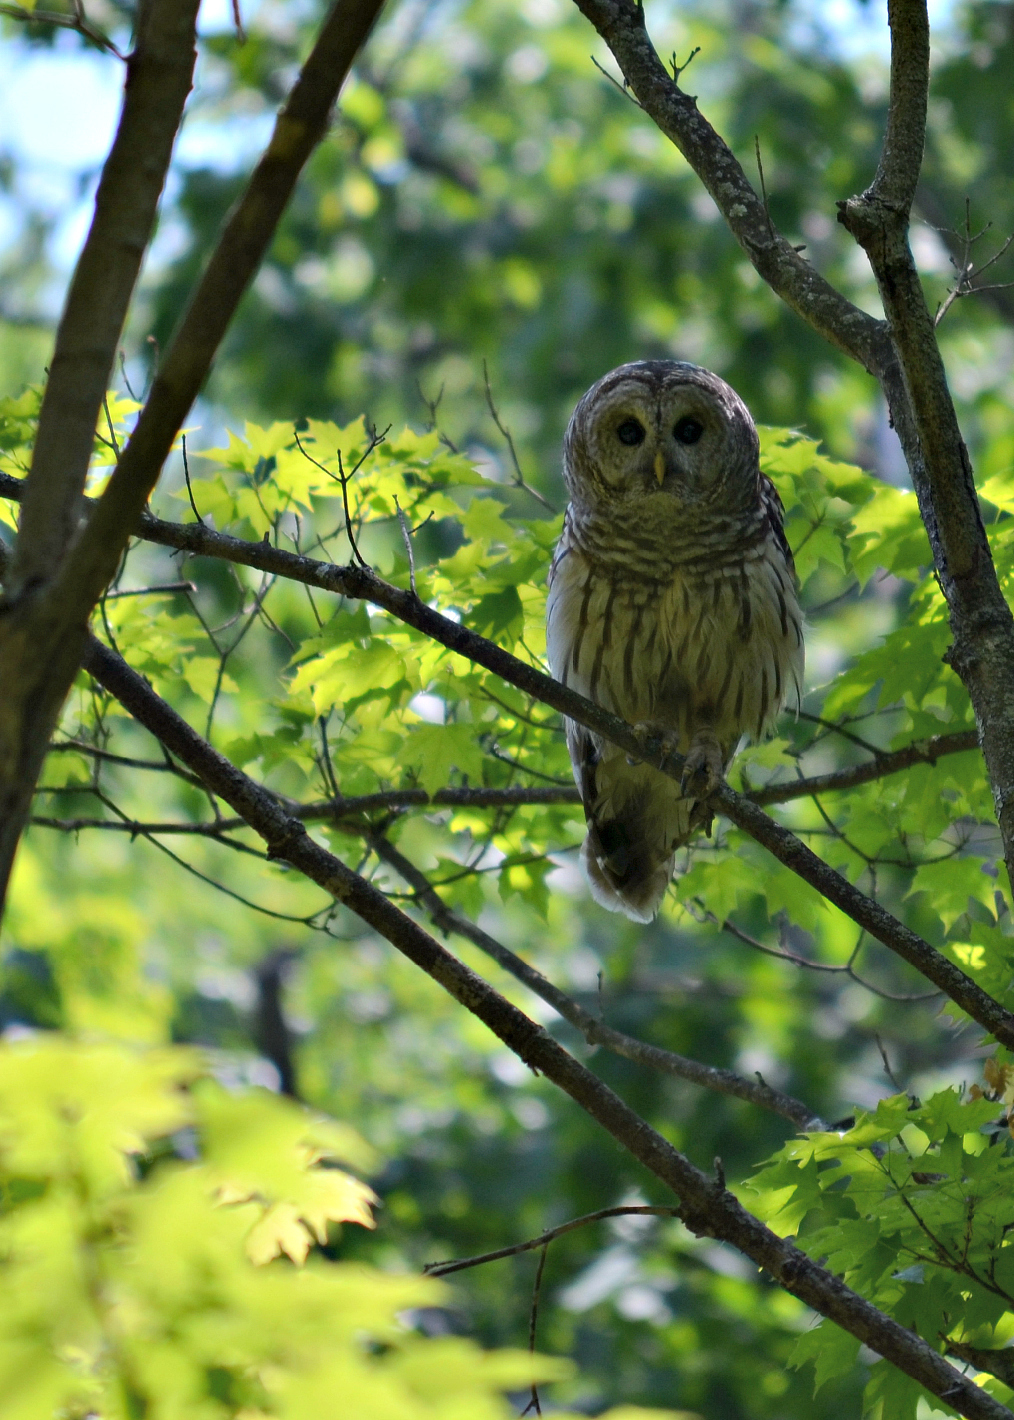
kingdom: Animalia
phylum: Chordata
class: Aves
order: Strigiformes
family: Strigidae
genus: Strix
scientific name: Strix varia
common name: Barred owl
